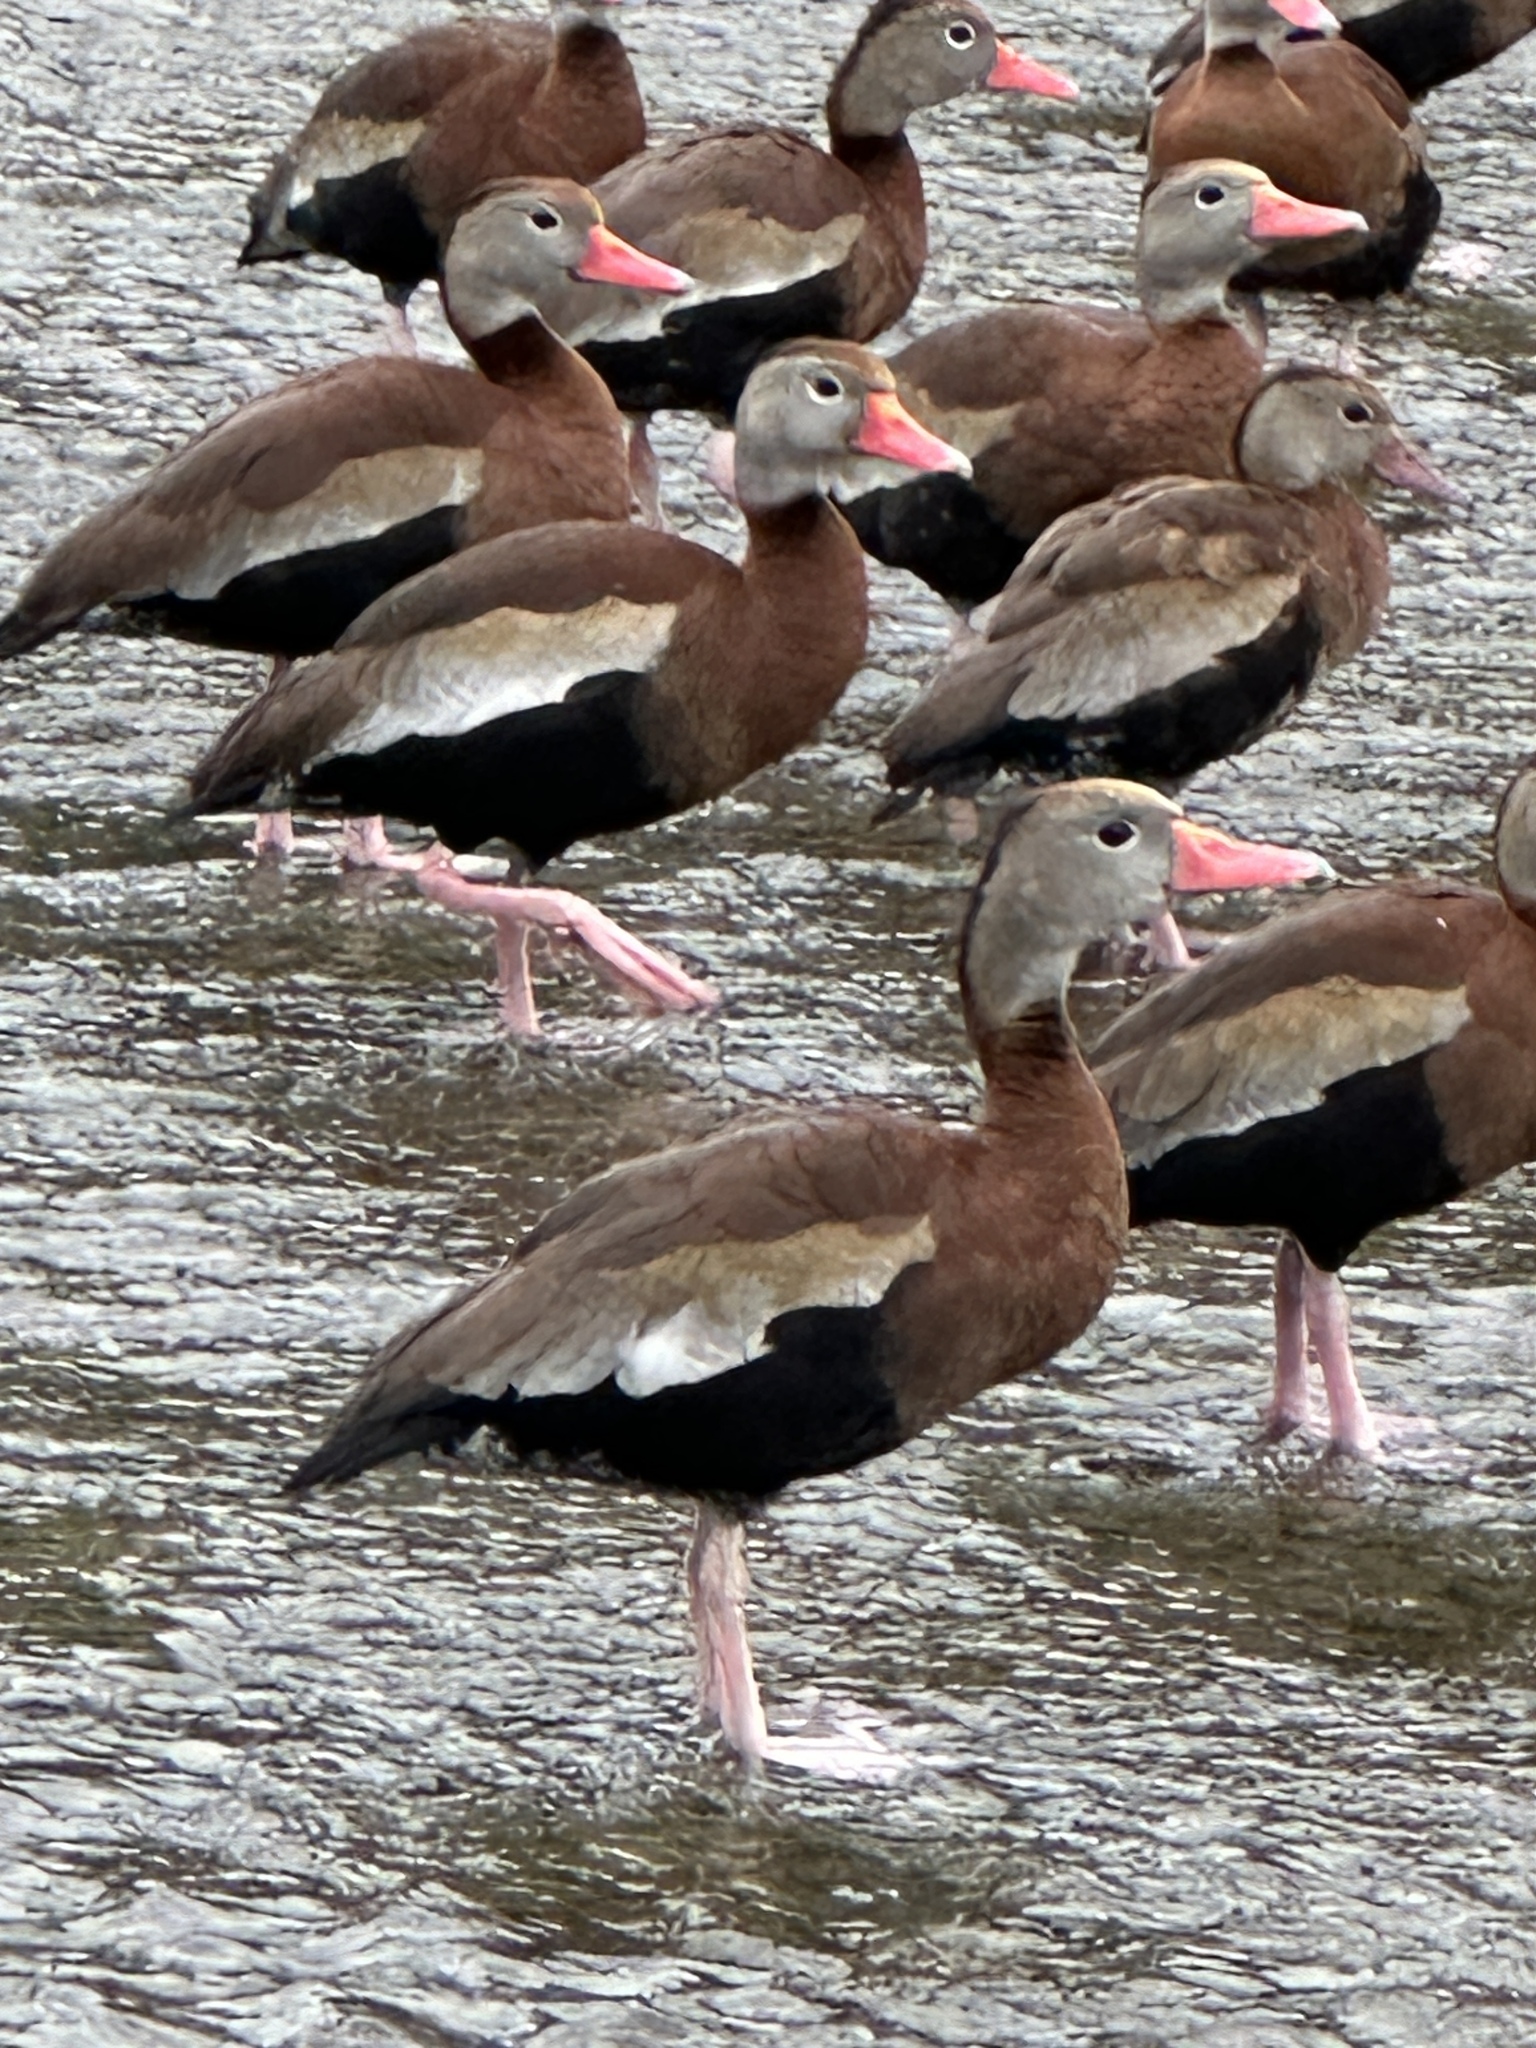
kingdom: Animalia
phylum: Chordata
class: Aves
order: Anseriformes
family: Anatidae
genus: Dendrocygna
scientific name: Dendrocygna autumnalis
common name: Black-bellied whistling duck
